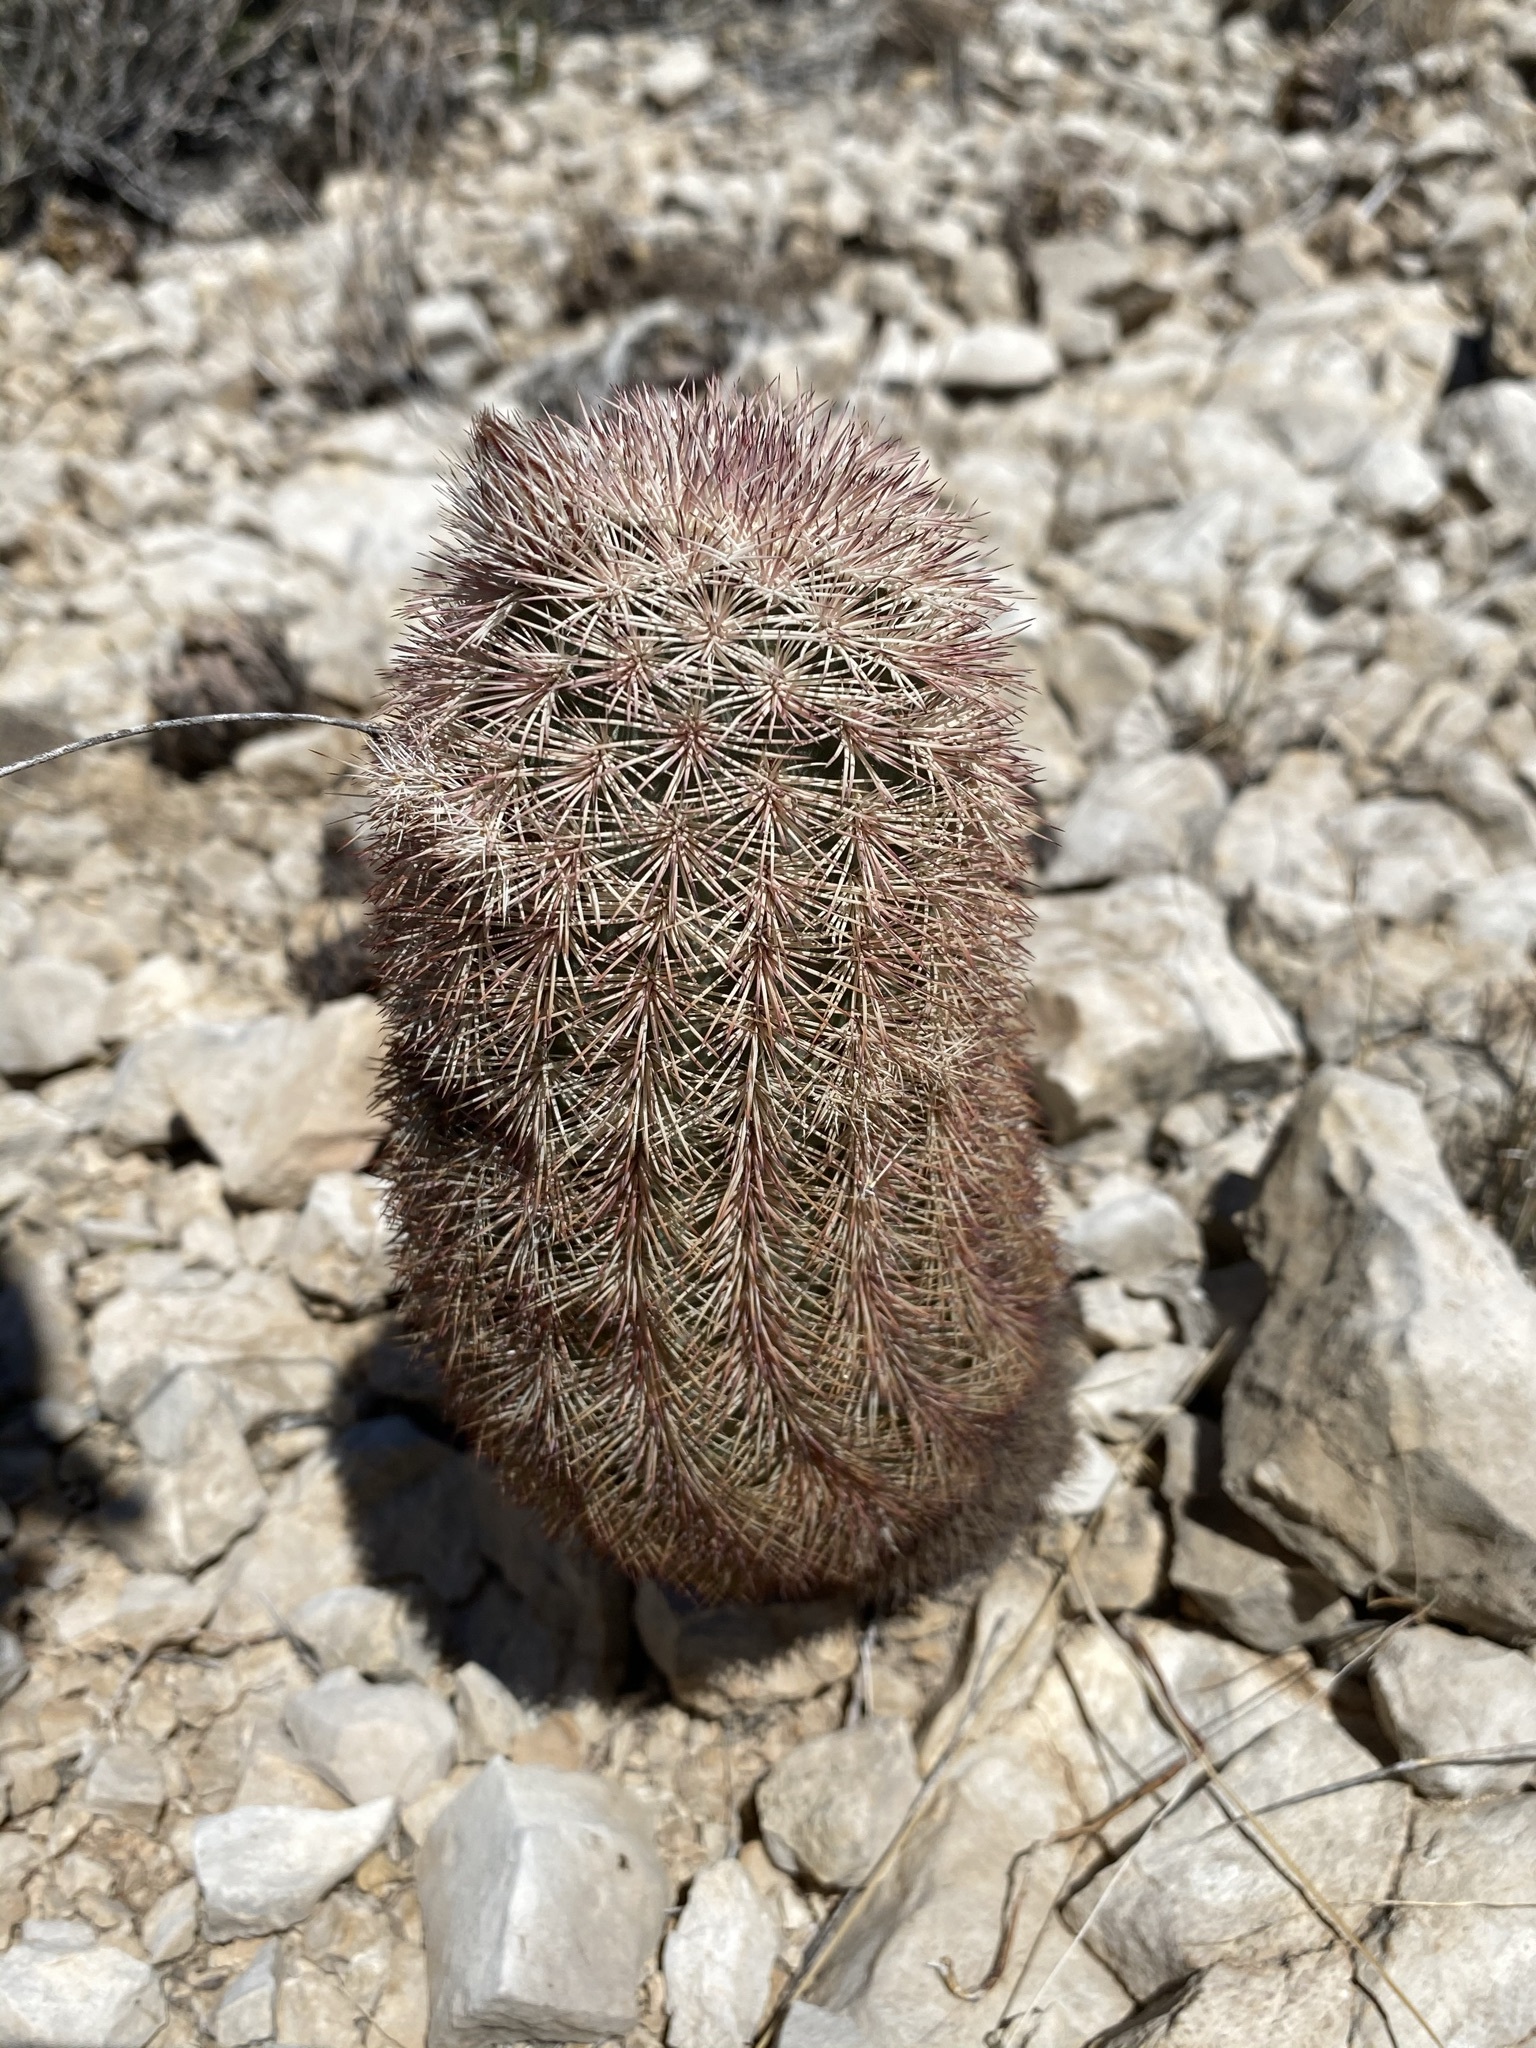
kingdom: Plantae
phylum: Tracheophyta
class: Magnoliopsida
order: Caryophyllales
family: Cactaceae
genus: Echinocereus
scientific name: Echinocereus dasyacanthus
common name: Spiny hedgehog cactus
